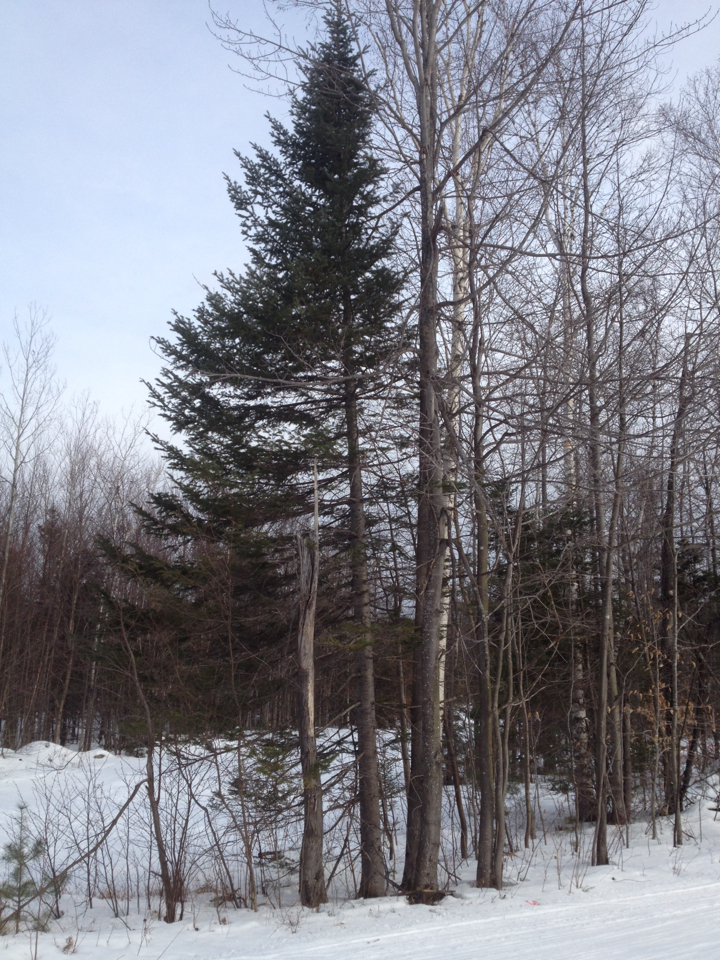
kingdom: Plantae
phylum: Tracheophyta
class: Pinopsida
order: Pinales
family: Pinaceae
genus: Picea
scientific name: Picea rubens
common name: Red spruce
